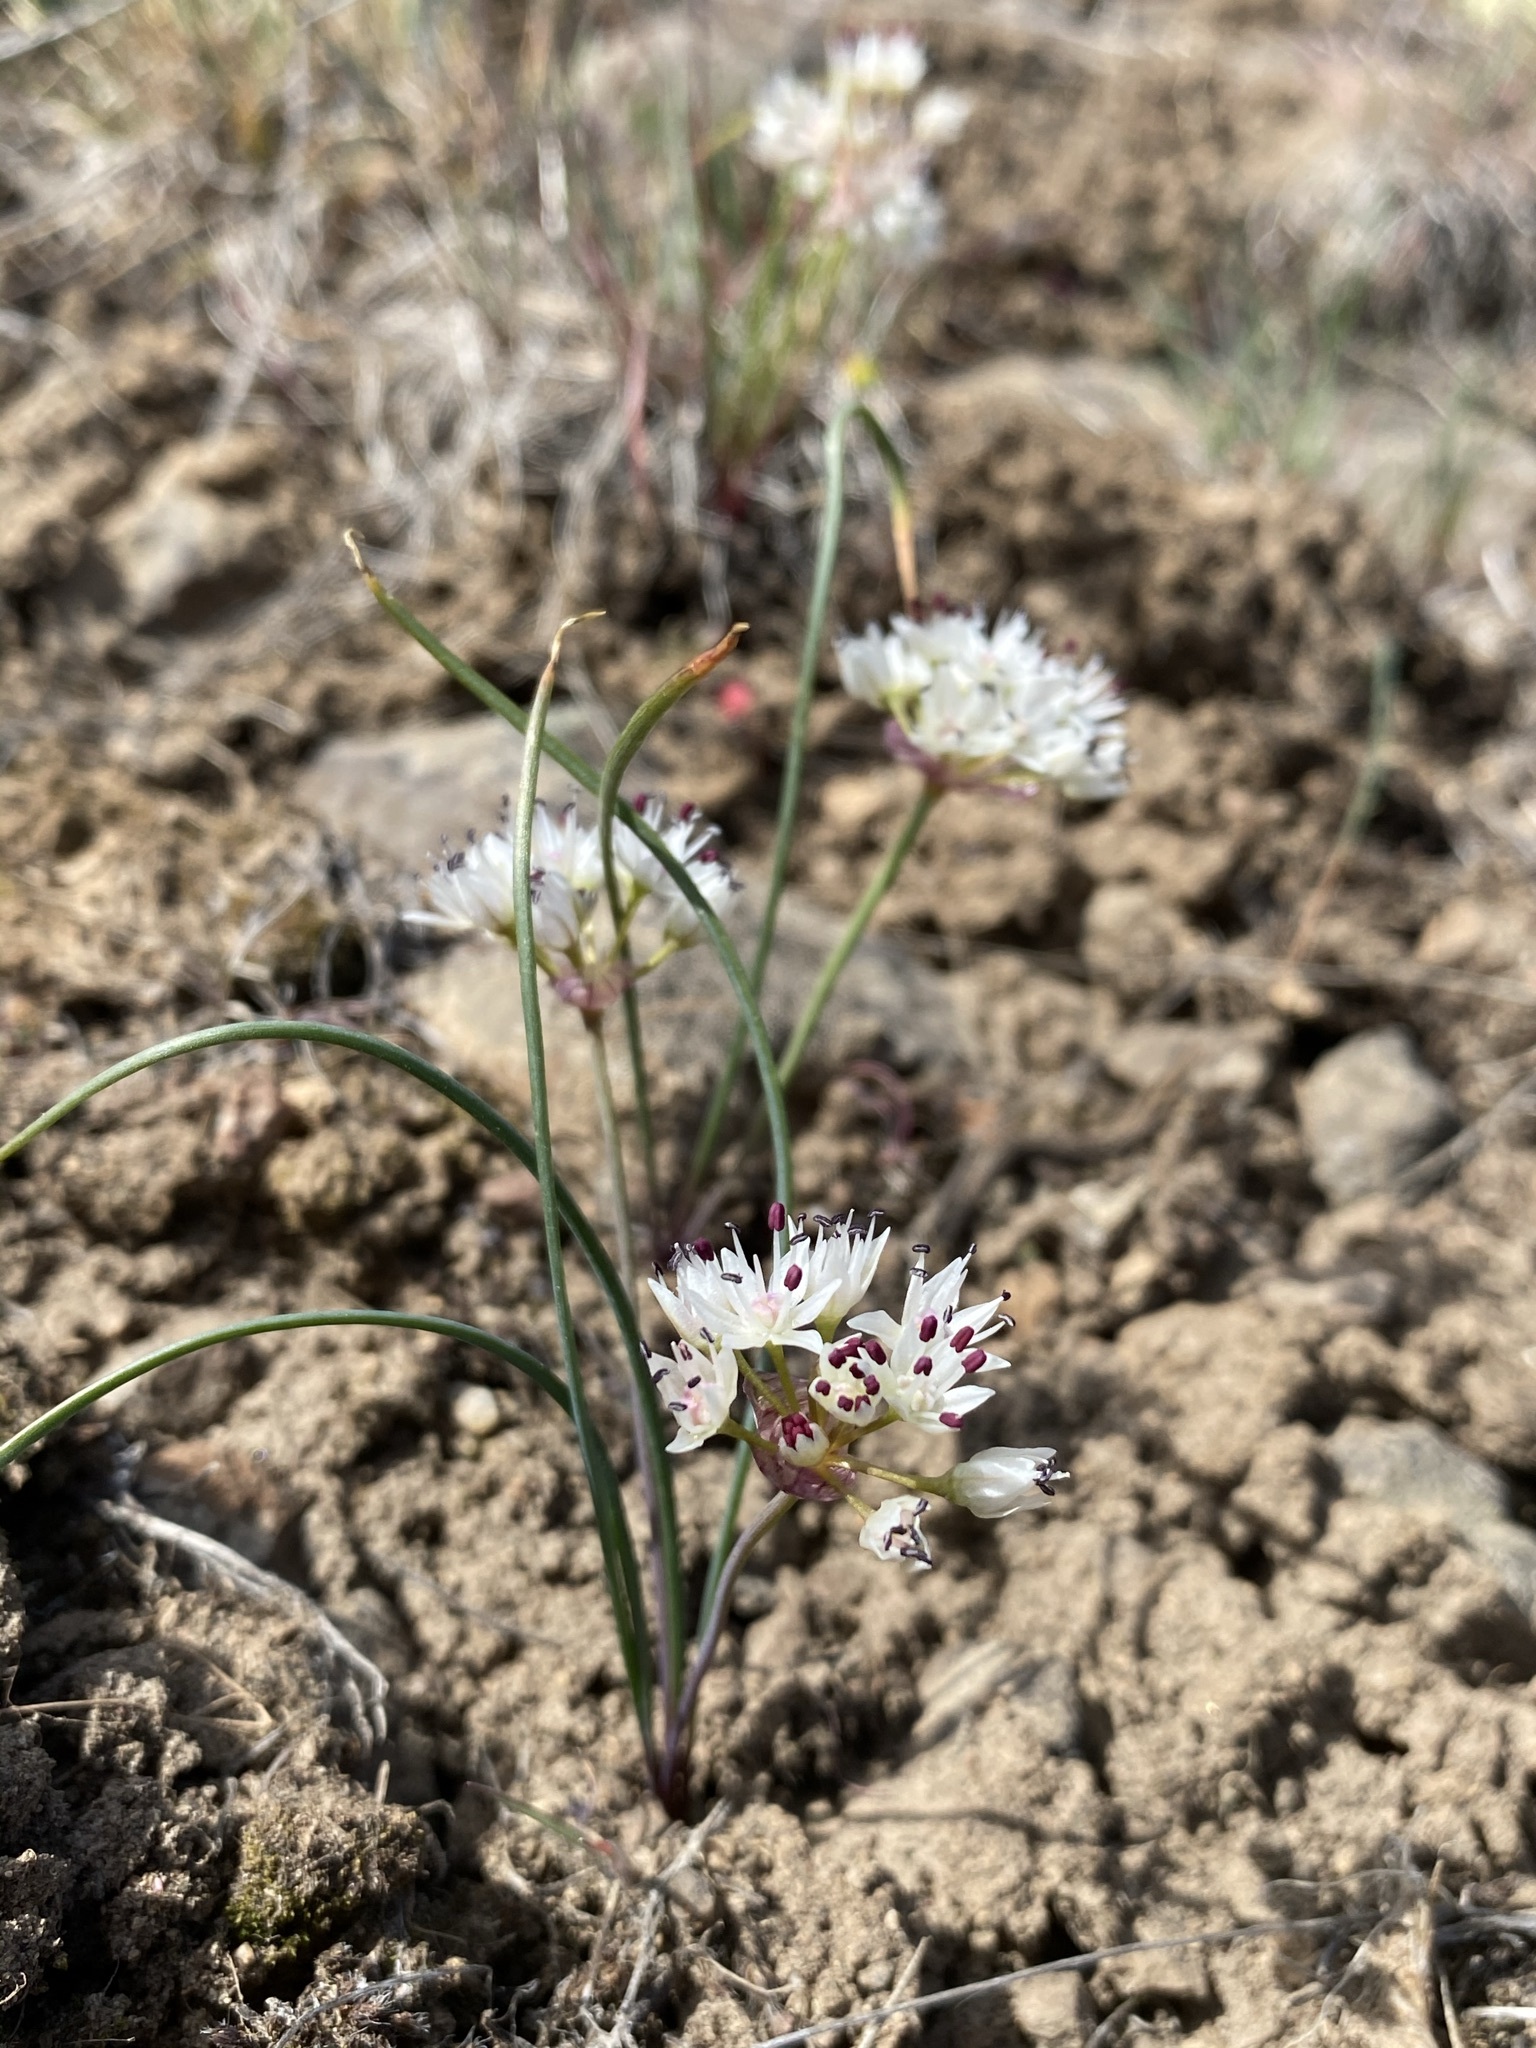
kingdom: Plantae
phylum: Tracheophyta
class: Liliopsida
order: Asparagales
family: Amaryllidaceae
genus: Allium
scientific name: Allium macrum
